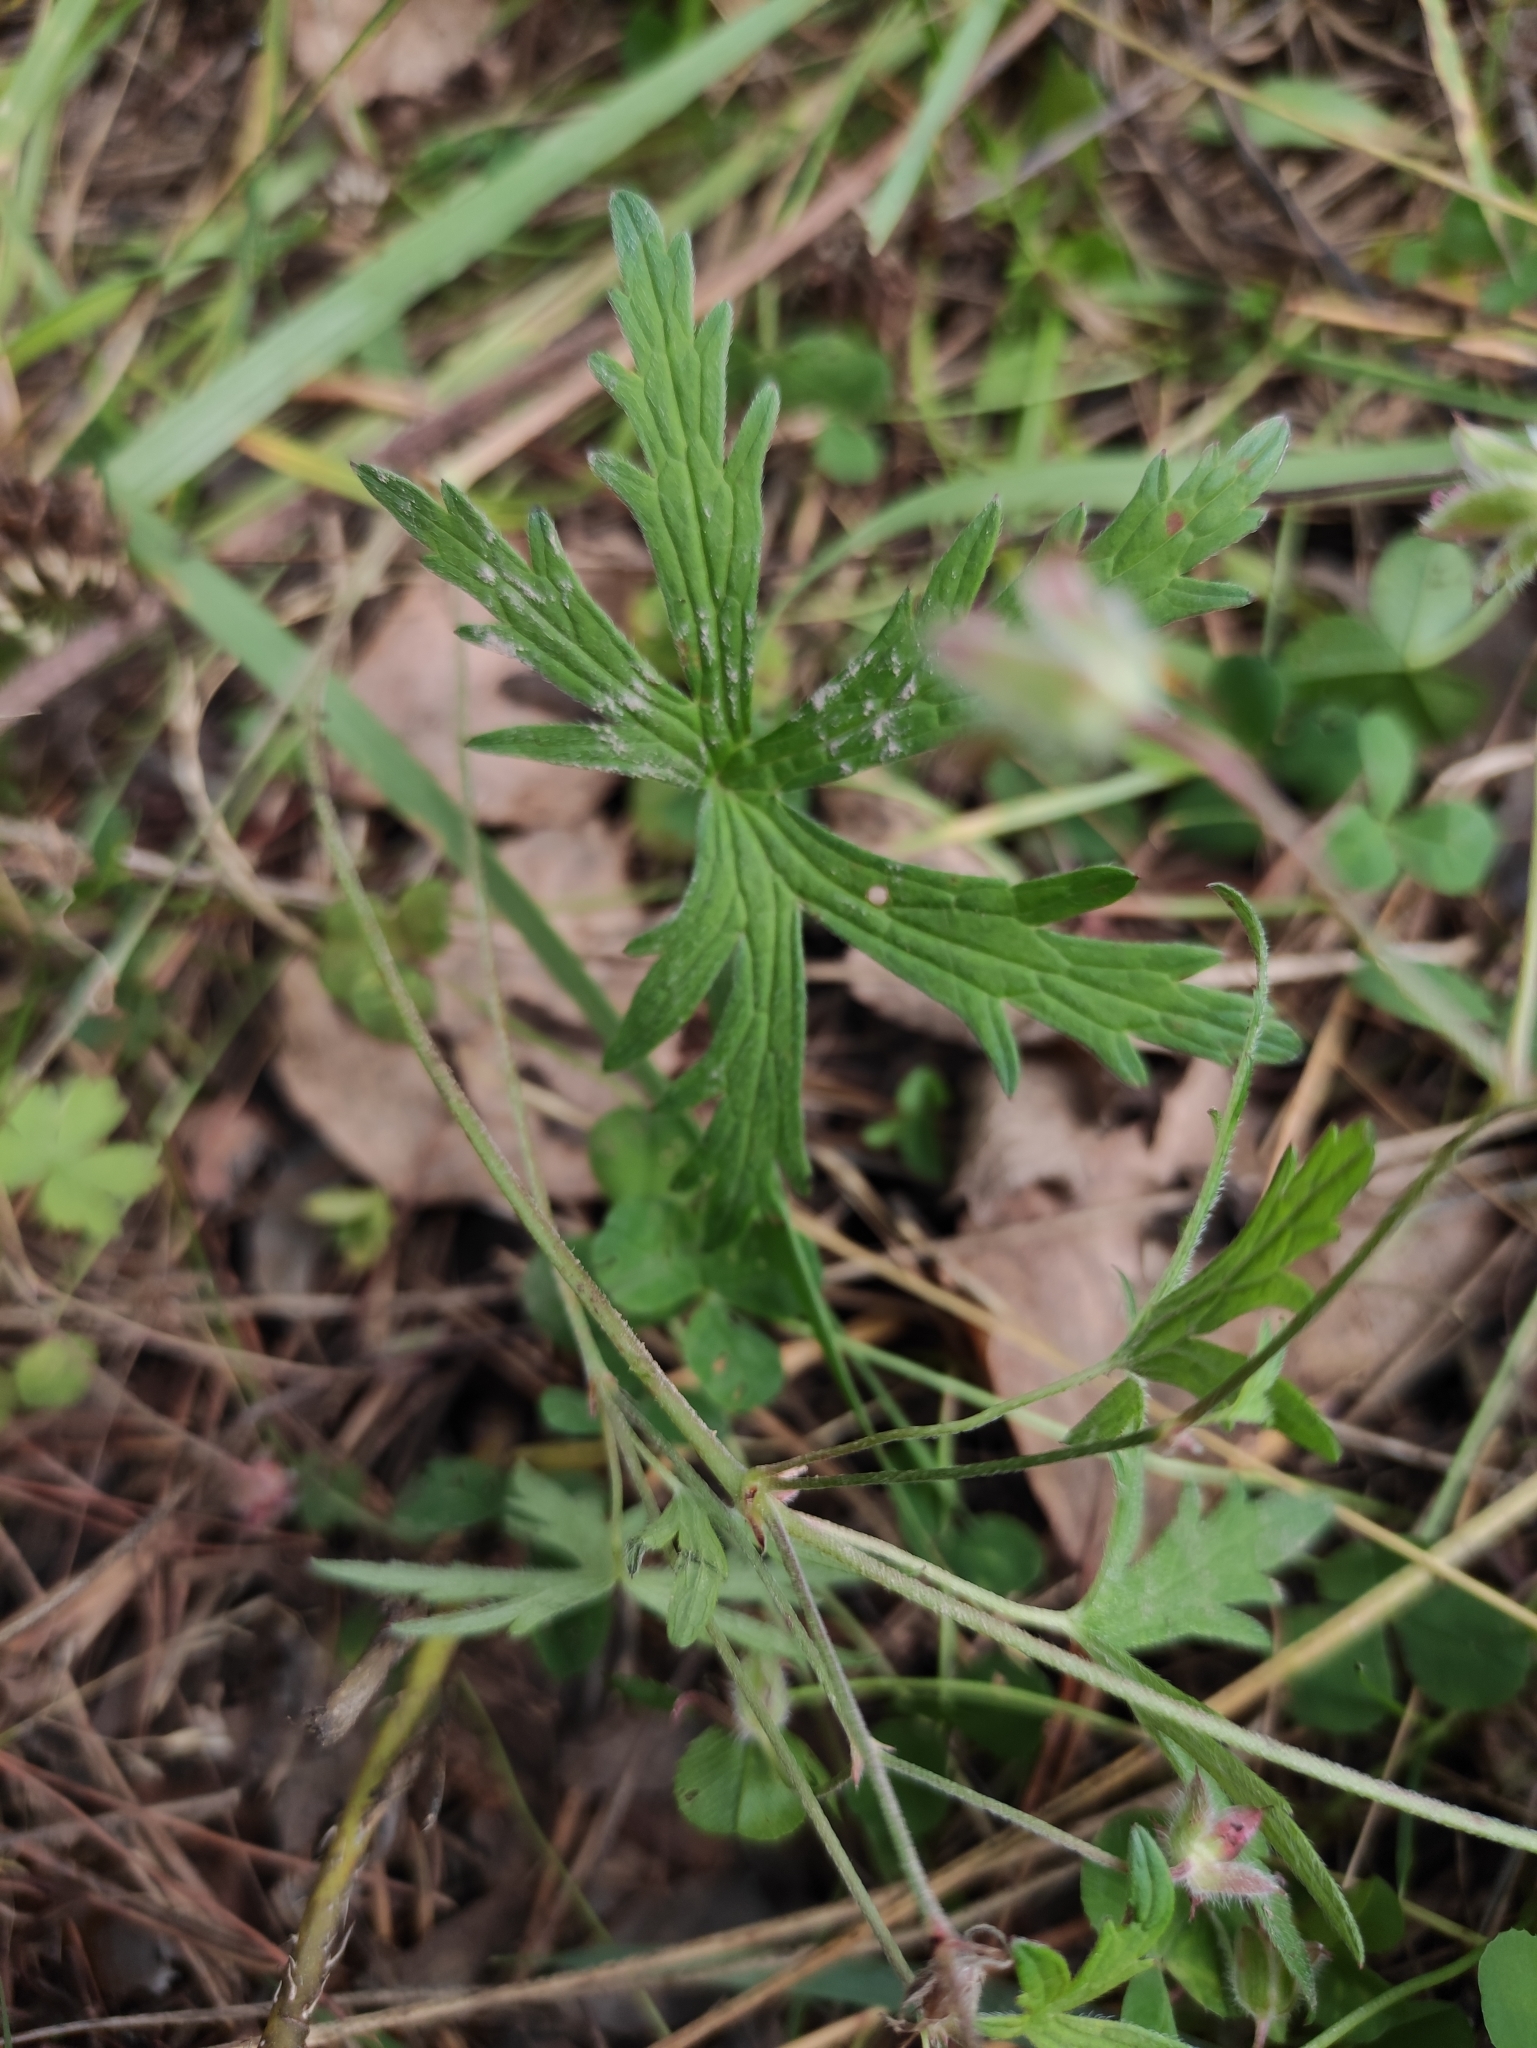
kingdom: Plantae
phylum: Tracheophyta
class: Magnoliopsida
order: Geraniales
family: Geraniaceae
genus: Geranium
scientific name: Geranium pseudosibiricum
